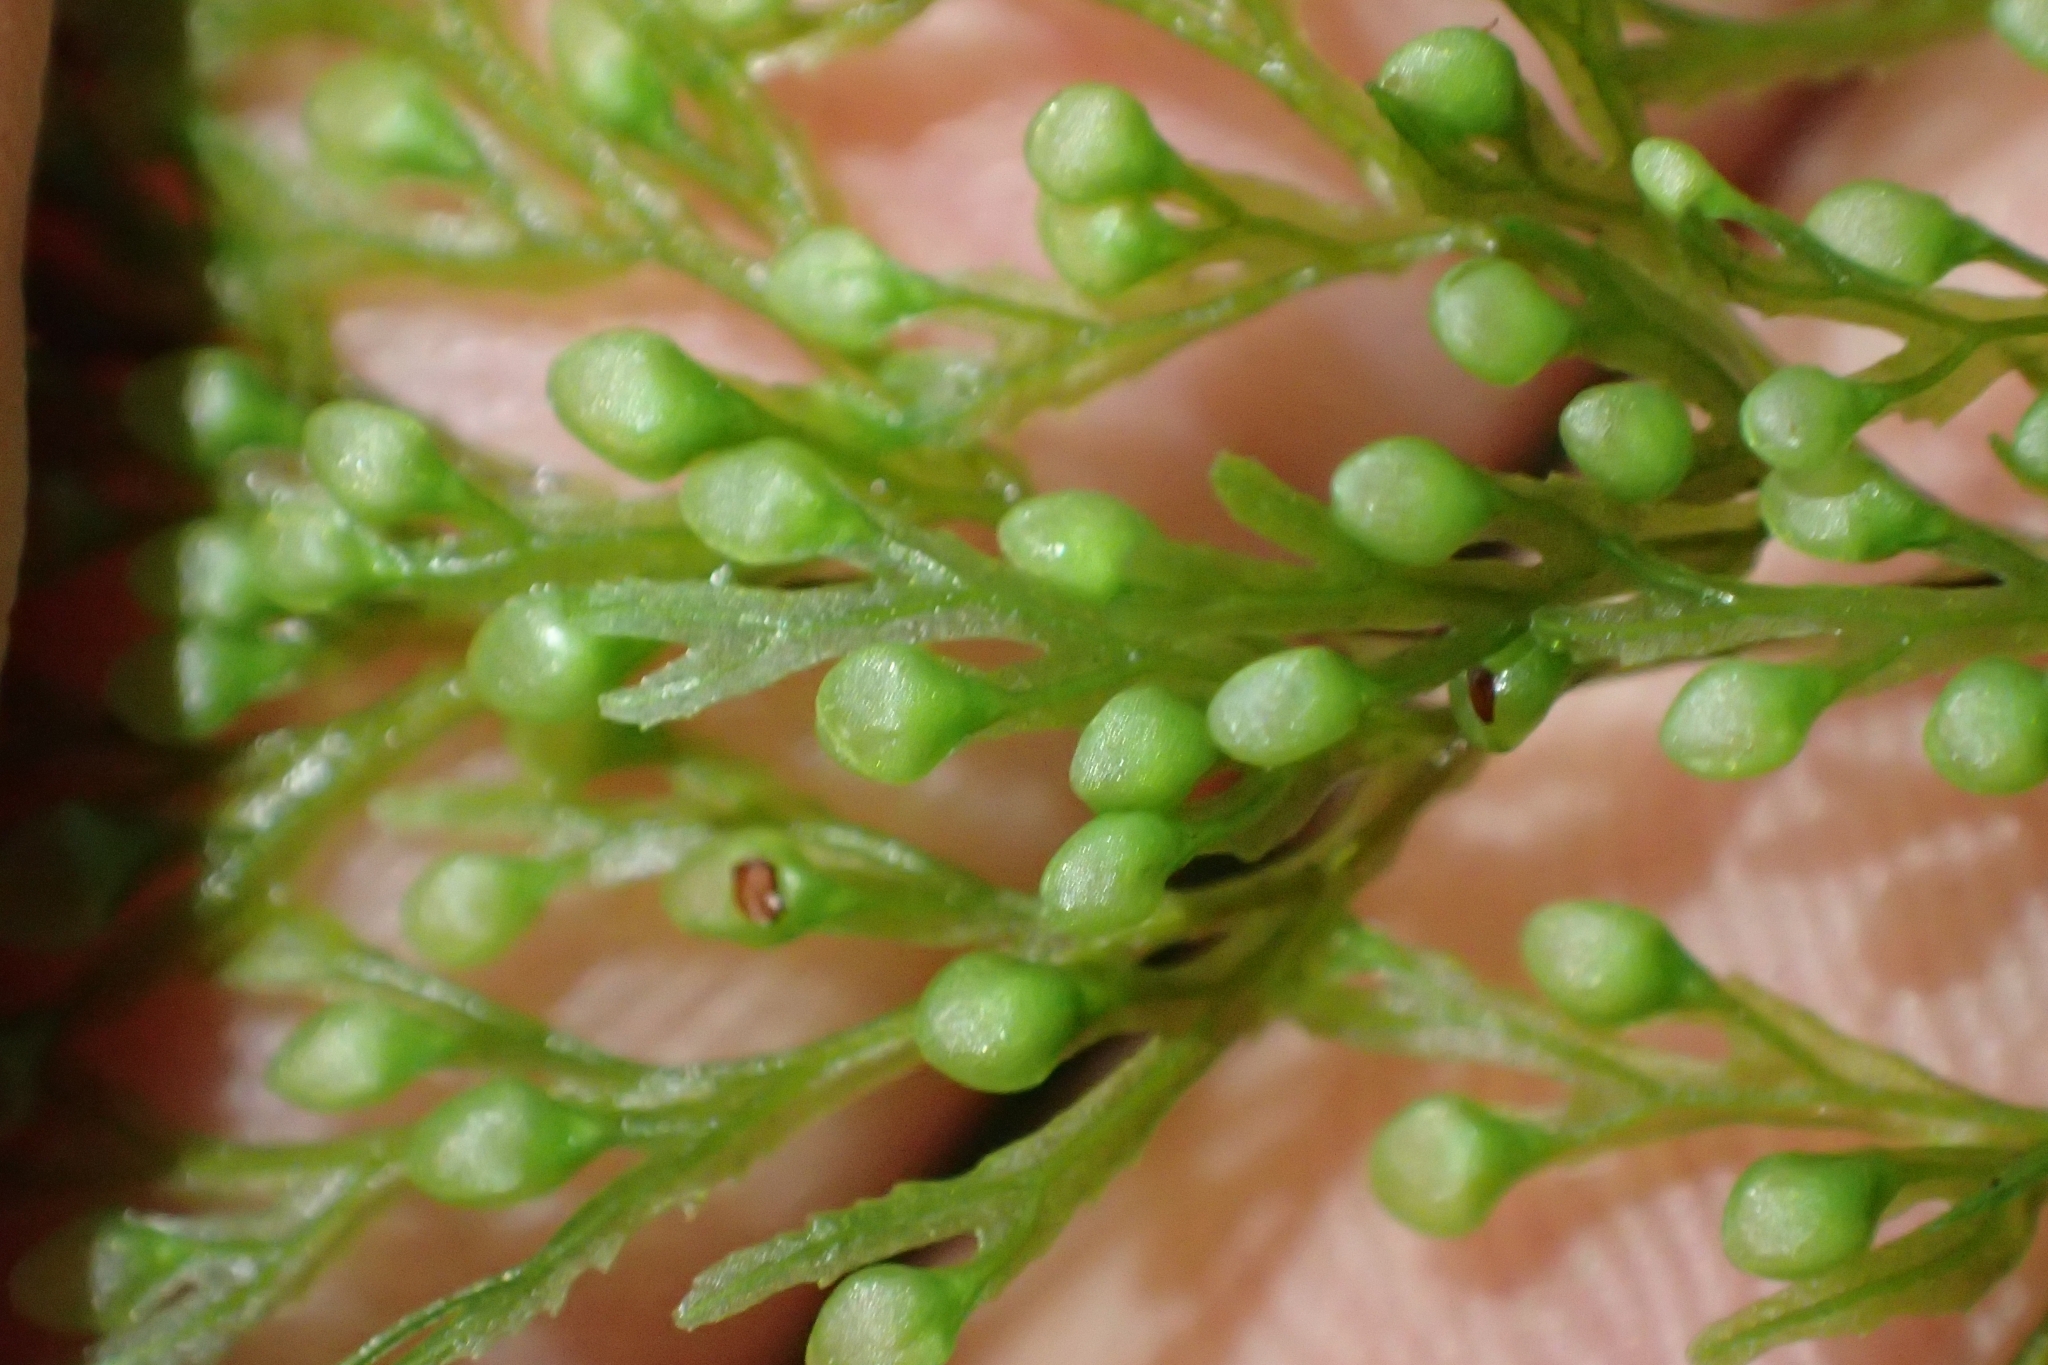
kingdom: Plantae
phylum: Tracheophyta
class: Polypodiopsida
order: Hymenophyllales
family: Hymenophyllaceae
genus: Hymenophyllum
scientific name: Hymenophyllum bivalve
